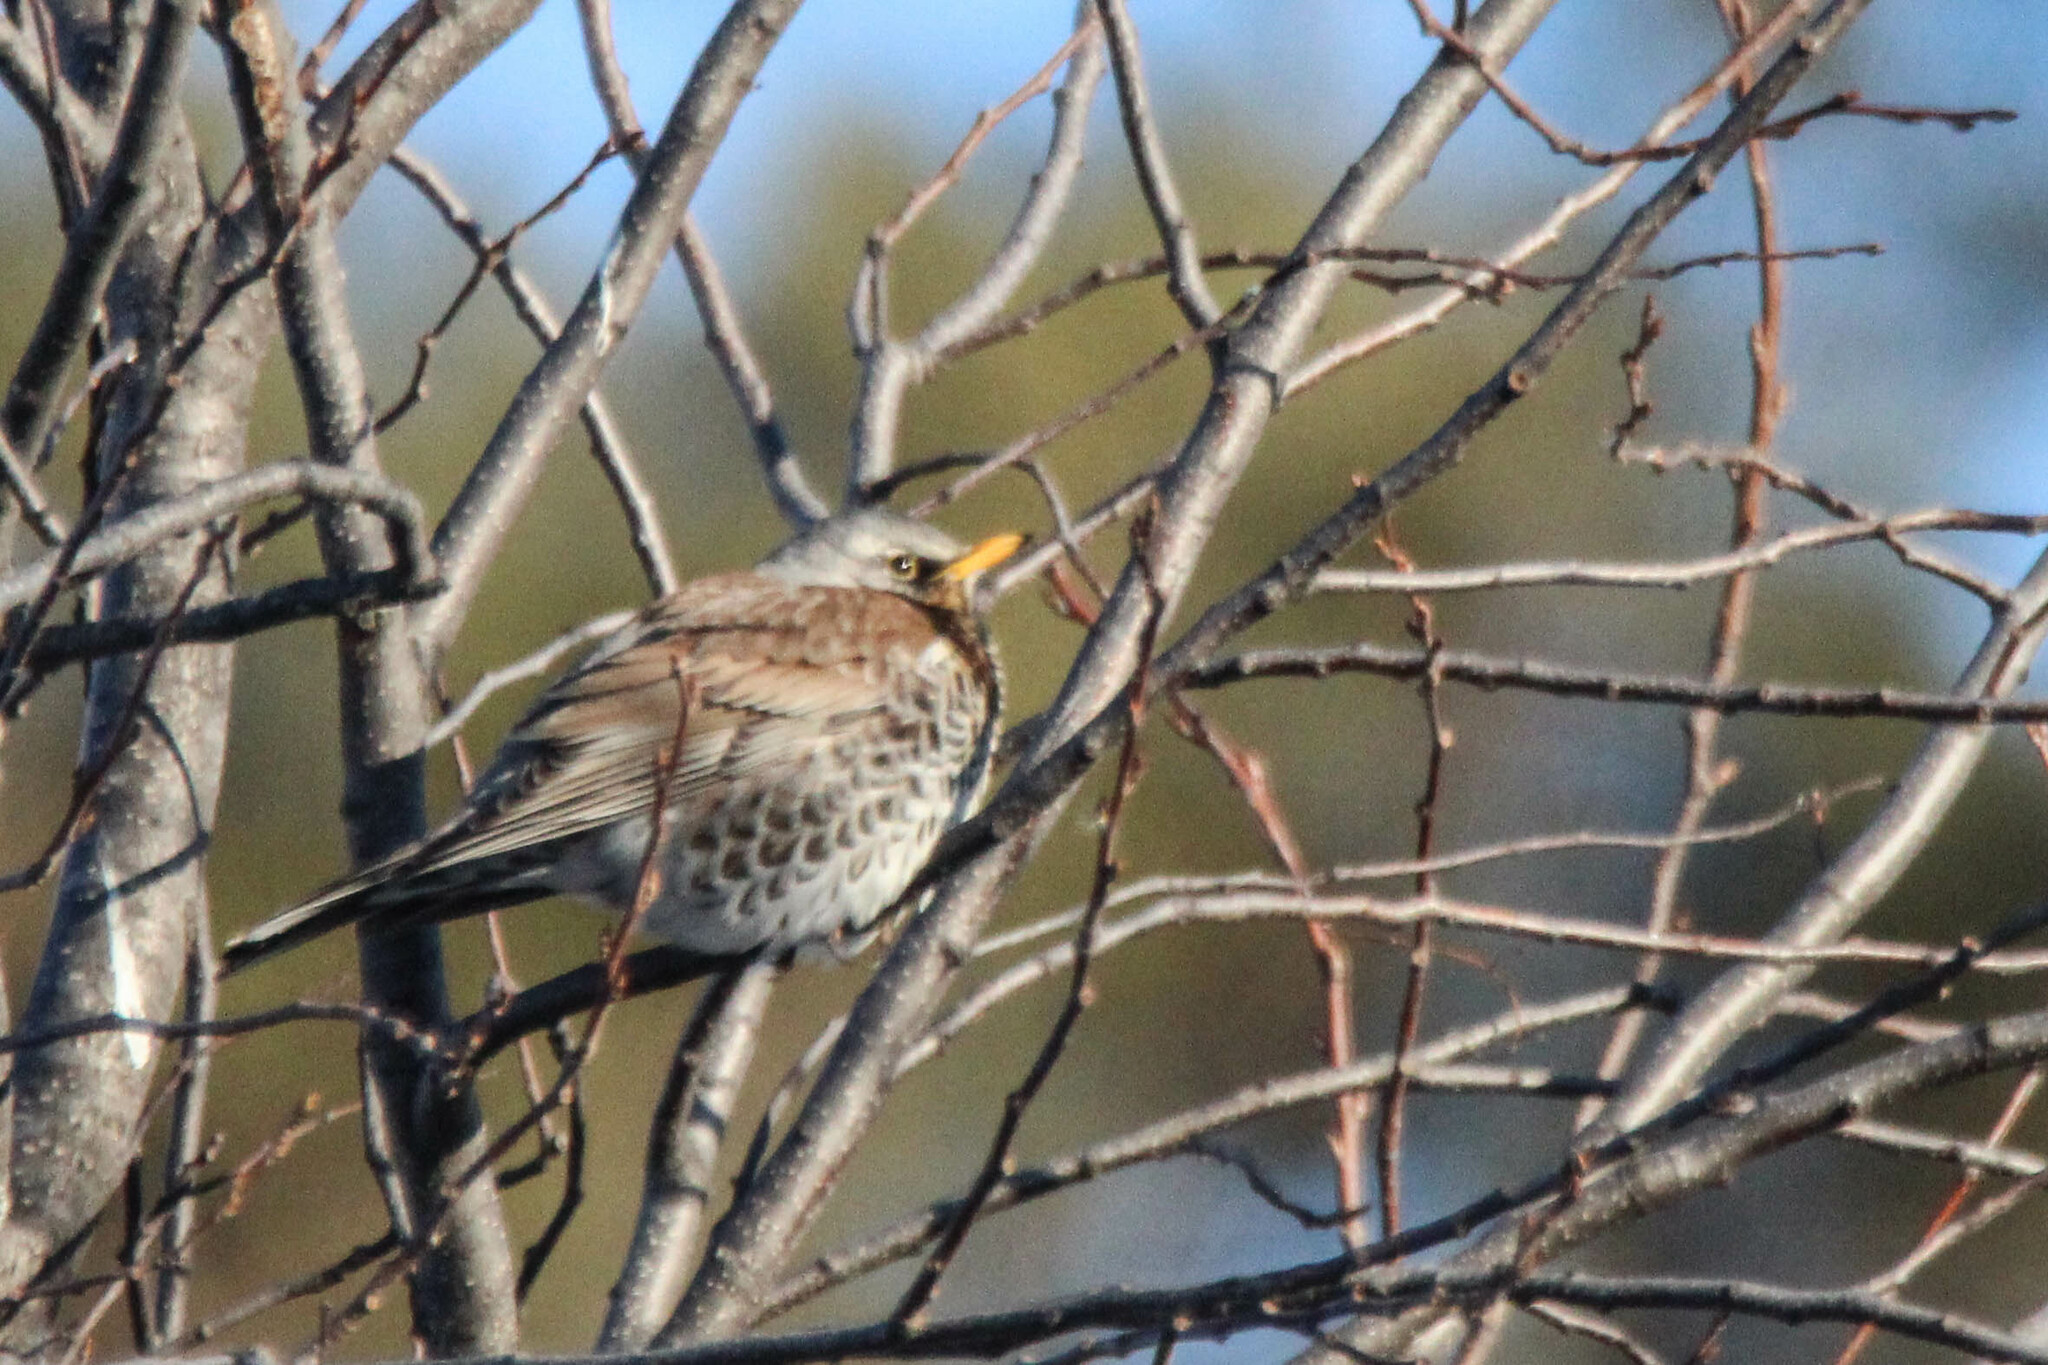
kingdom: Animalia
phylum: Chordata
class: Aves
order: Passeriformes
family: Turdidae
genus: Turdus
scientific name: Turdus pilaris
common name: Fieldfare
